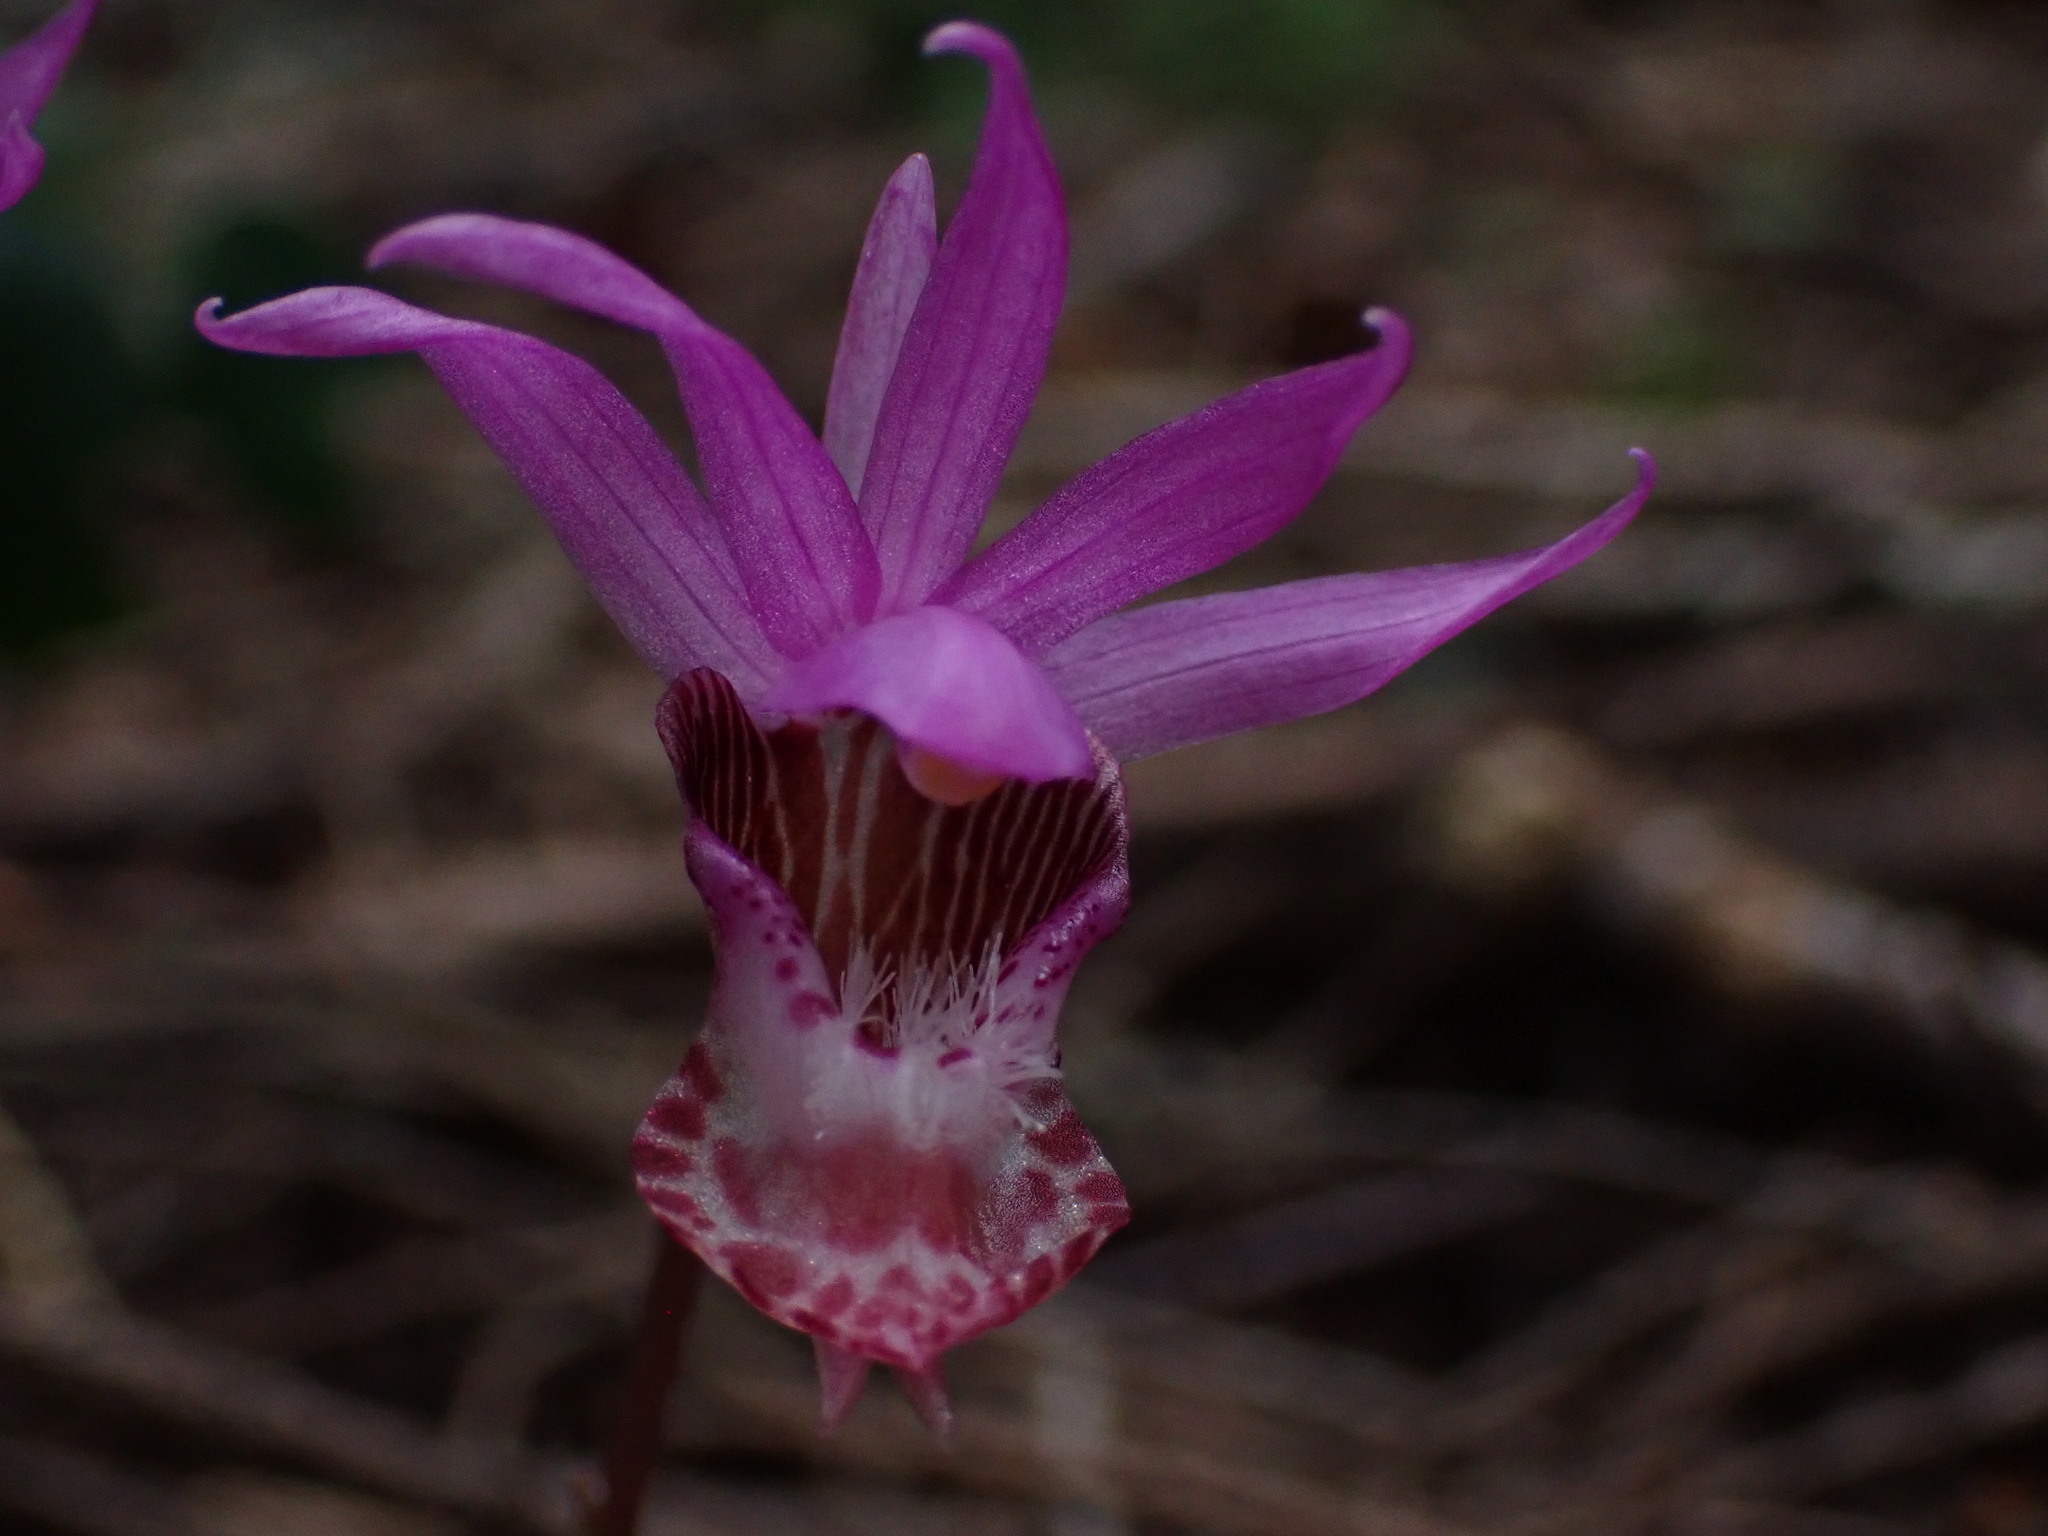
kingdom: Plantae
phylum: Tracheophyta
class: Liliopsida
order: Asparagales
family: Orchidaceae
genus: Calypso
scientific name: Calypso bulbosa
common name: Calypso
